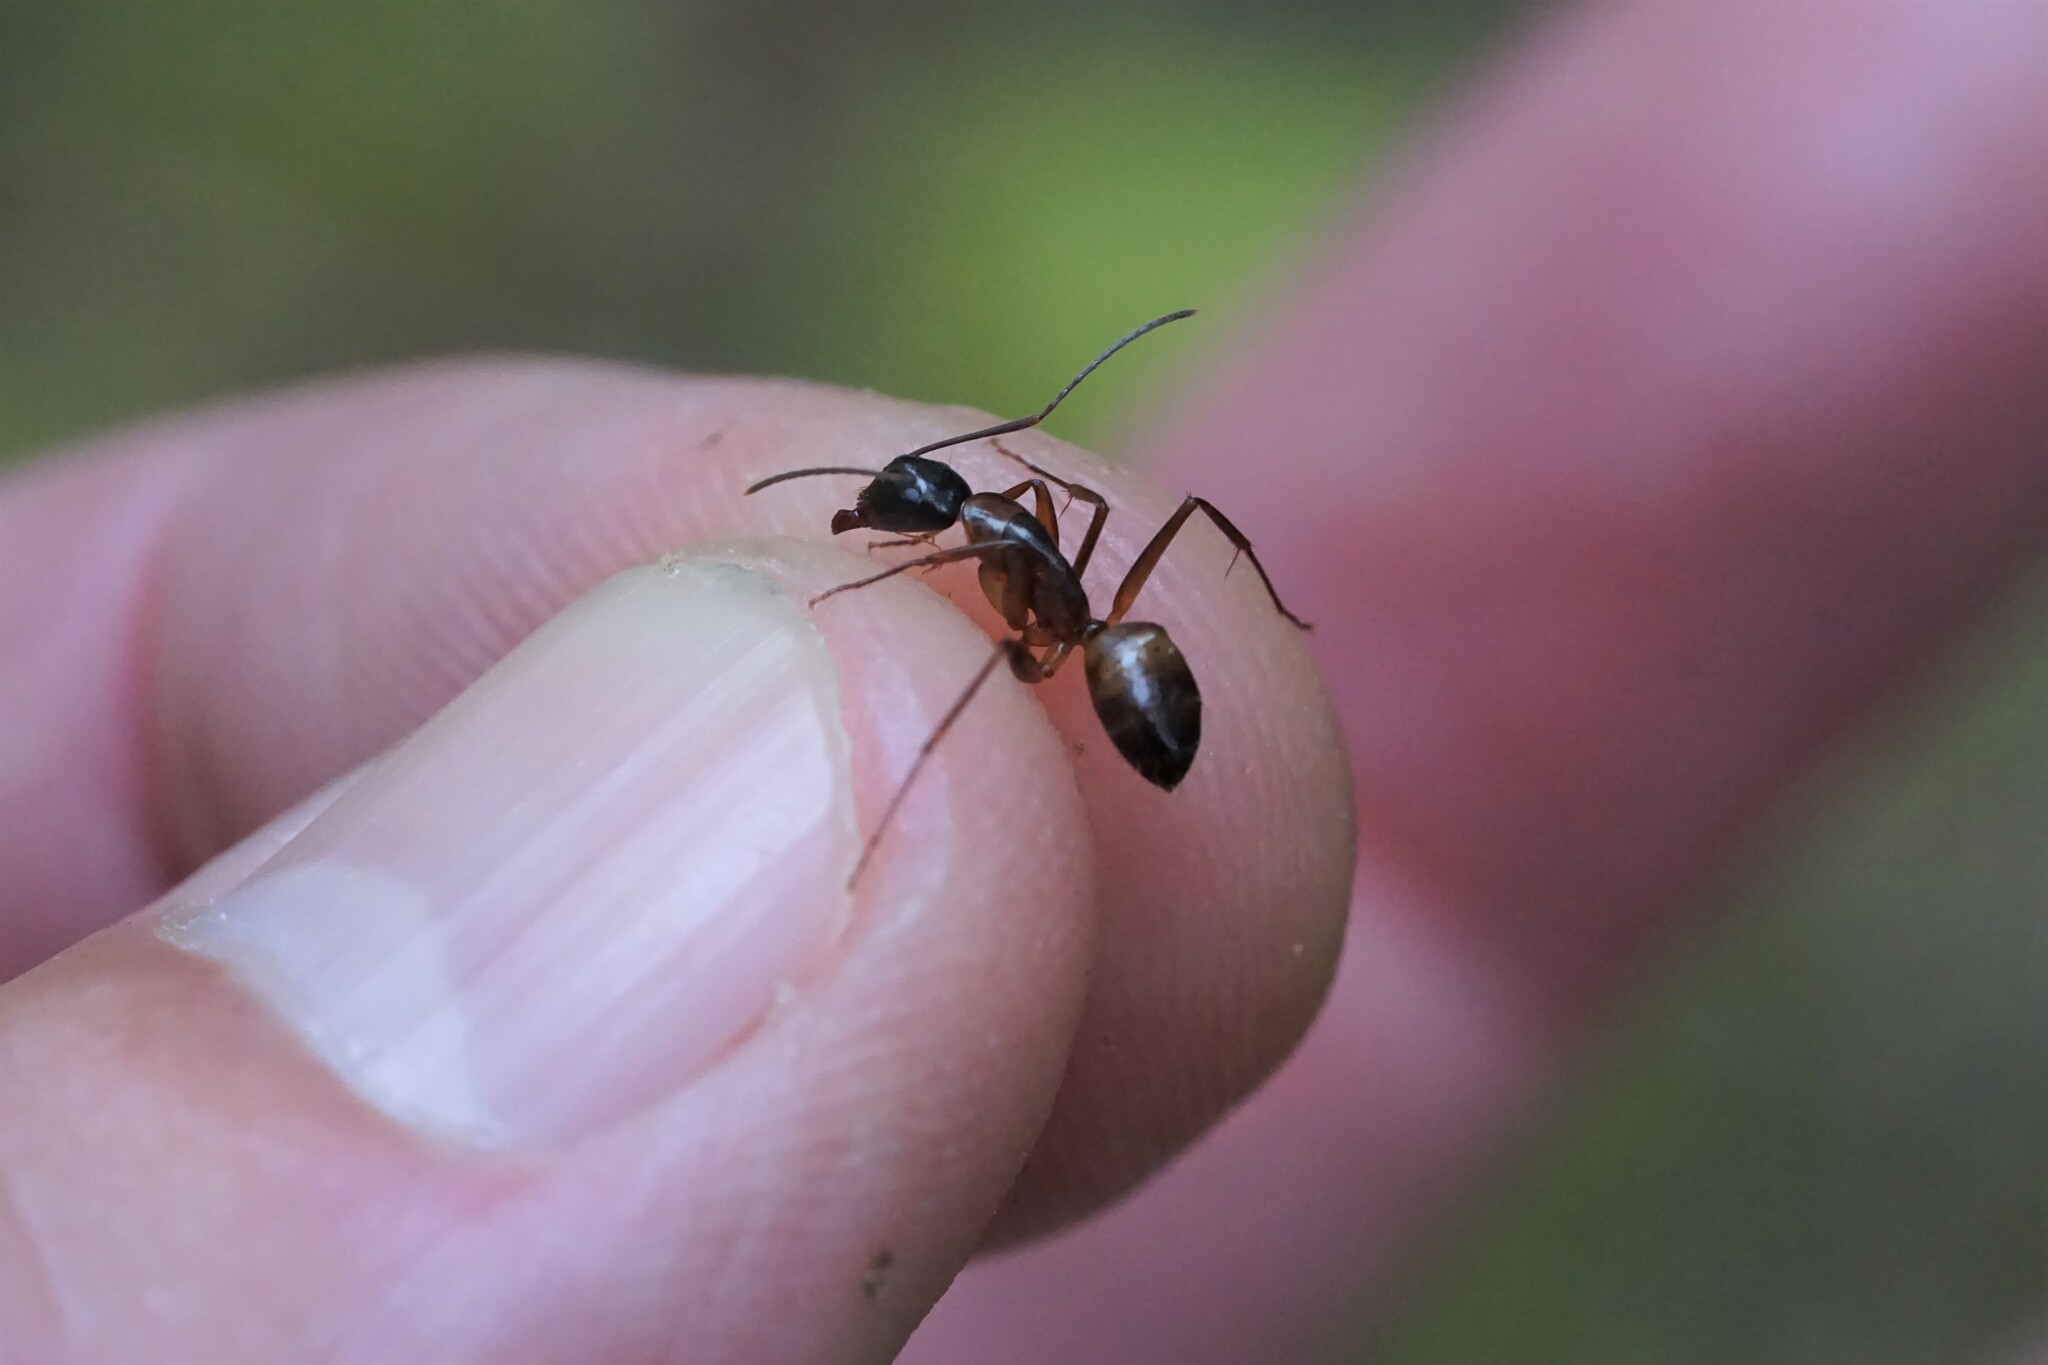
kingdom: Animalia
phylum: Arthropoda
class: Insecta
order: Hymenoptera
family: Formicidae
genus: Camponotus
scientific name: Camponotus americanus
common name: American carpenter ant
